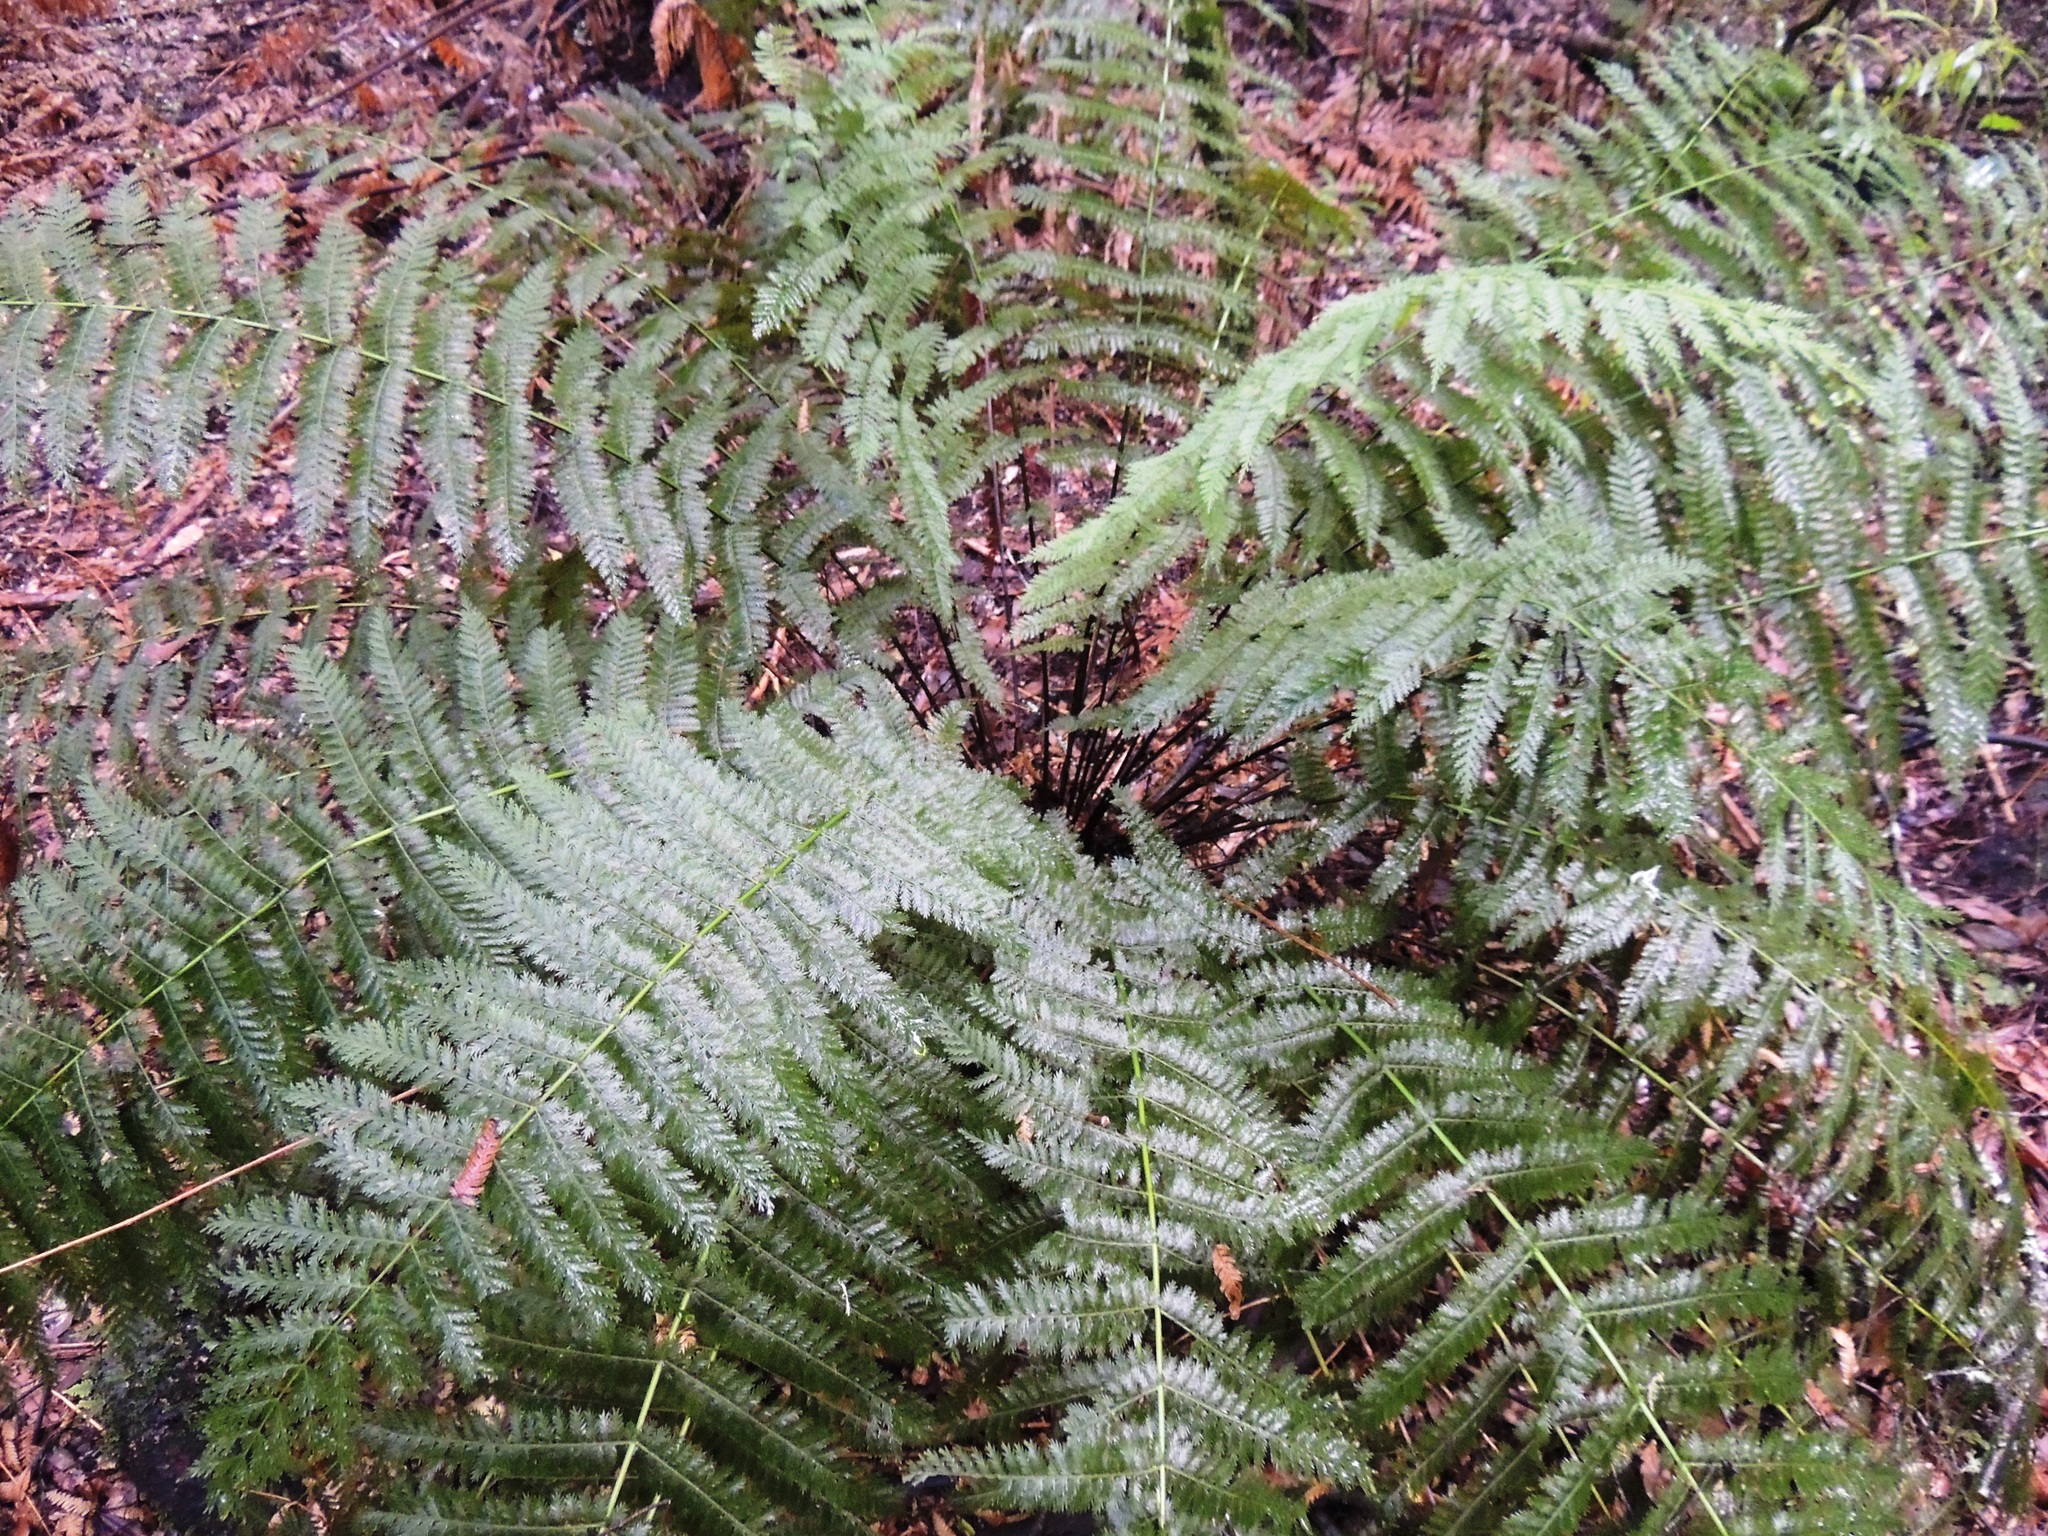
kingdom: Plantae
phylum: Tracheophyta
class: Polypodiopsida
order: Osmundales
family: Osmundaceae
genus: Leptopteris
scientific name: Leptopteris hymenophylloides
